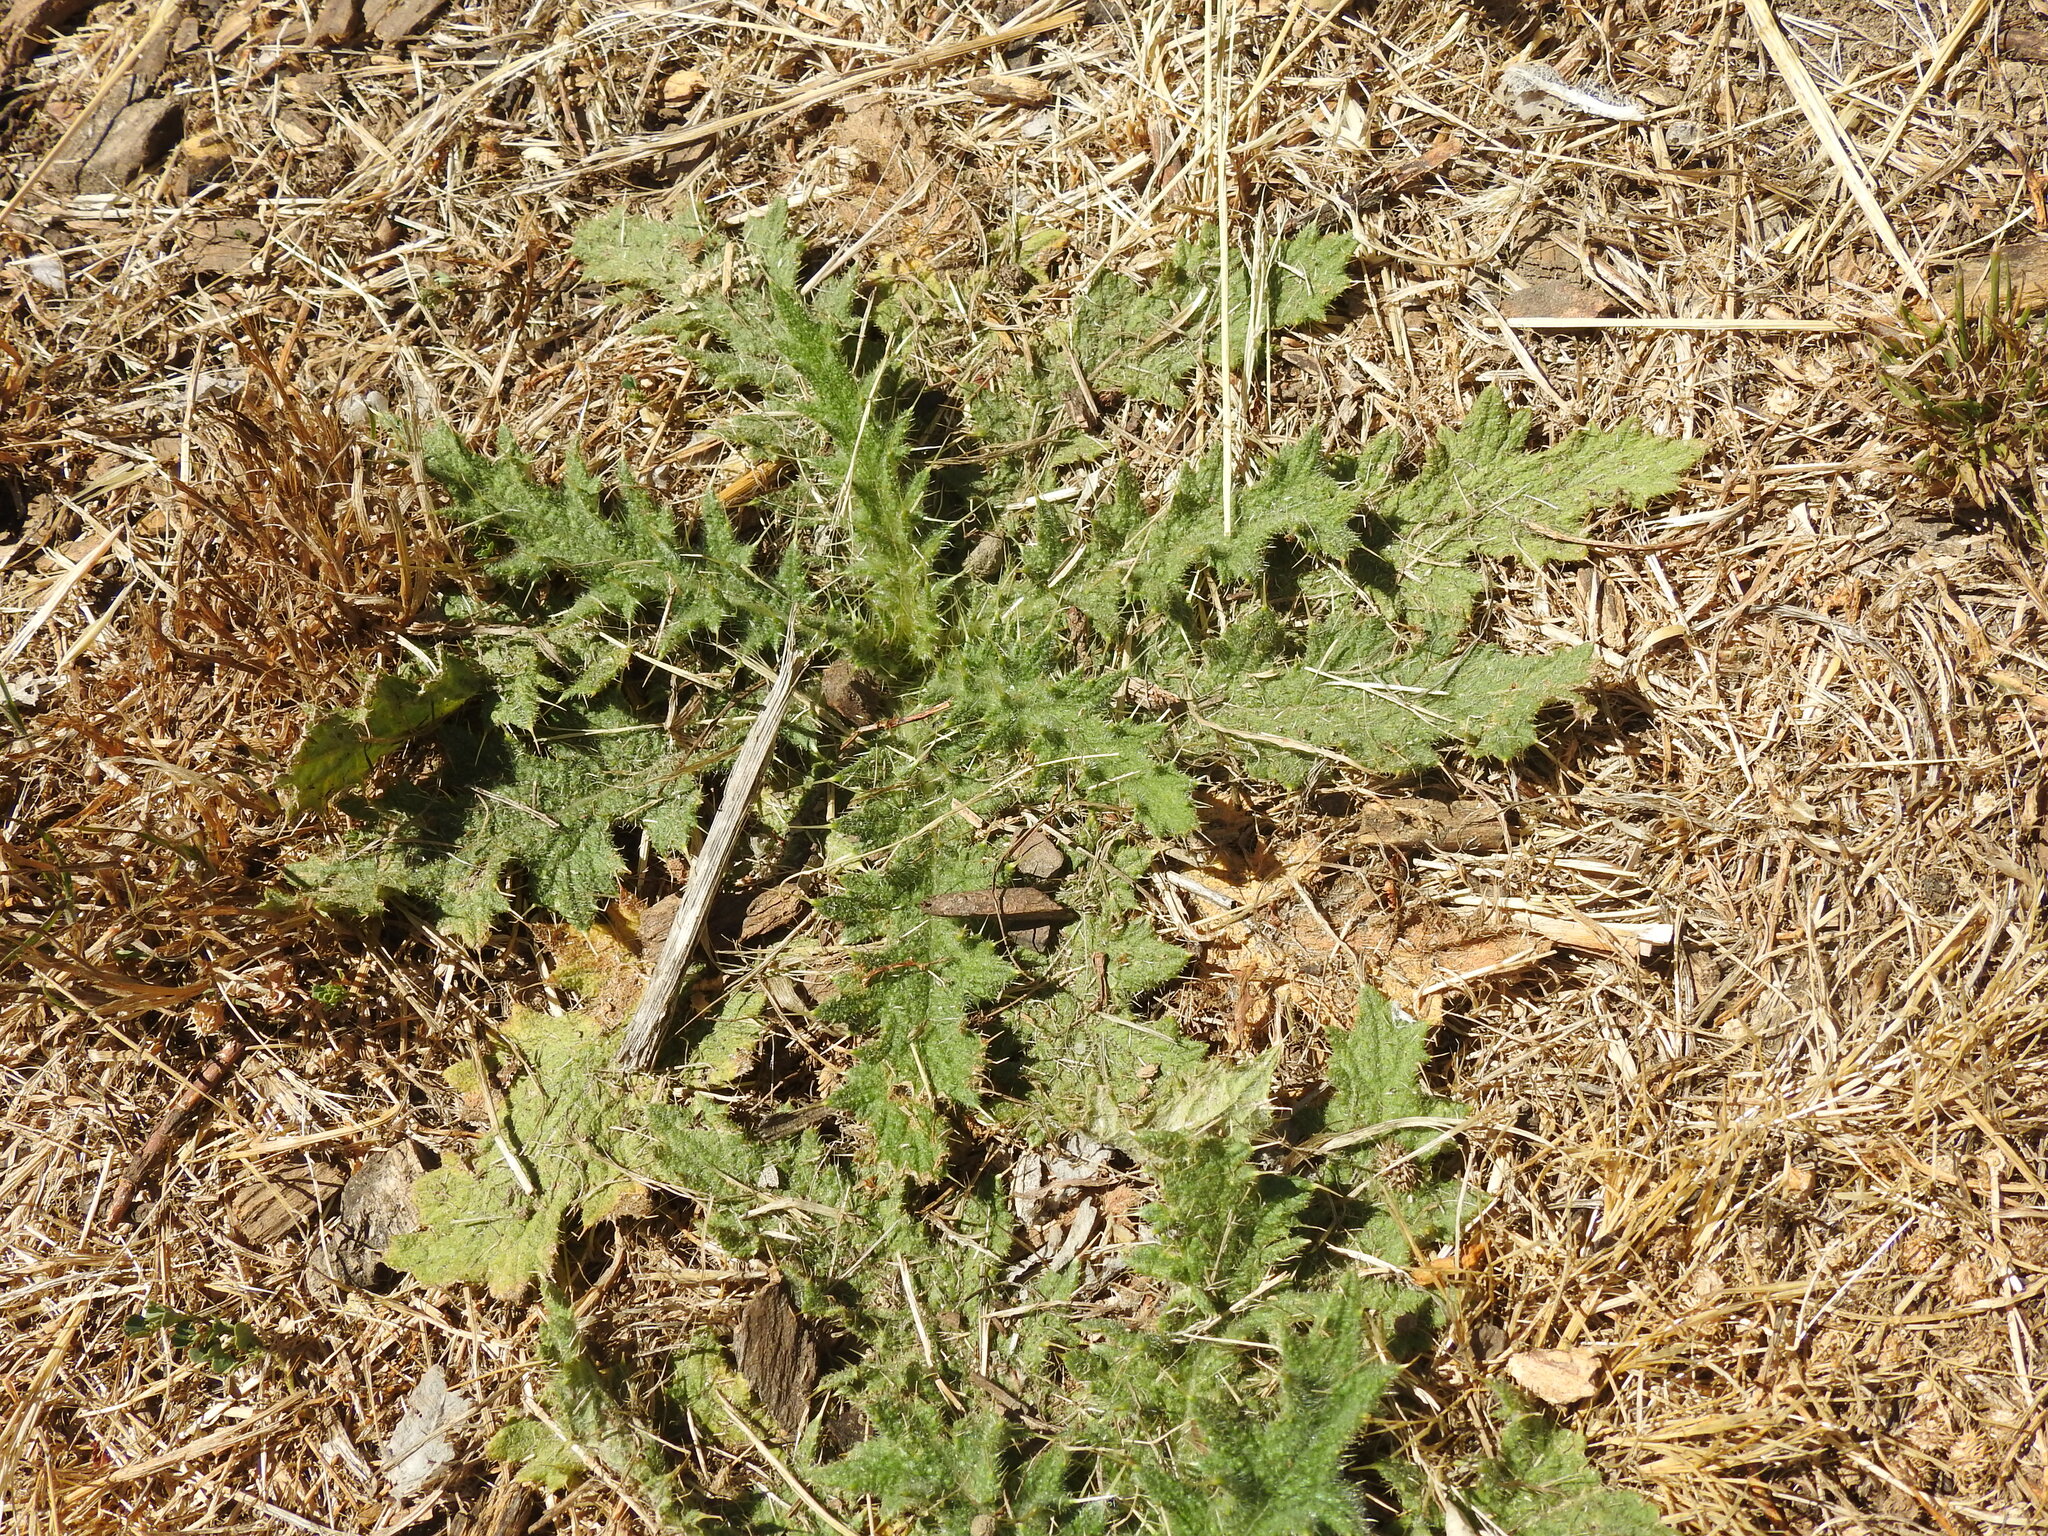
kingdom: Plantae
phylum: Tracheophyta
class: Magnoliopsida
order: Asterales
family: Asteraceae
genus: Cirsium
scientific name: Cirsium vulgare
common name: Bull thistle
